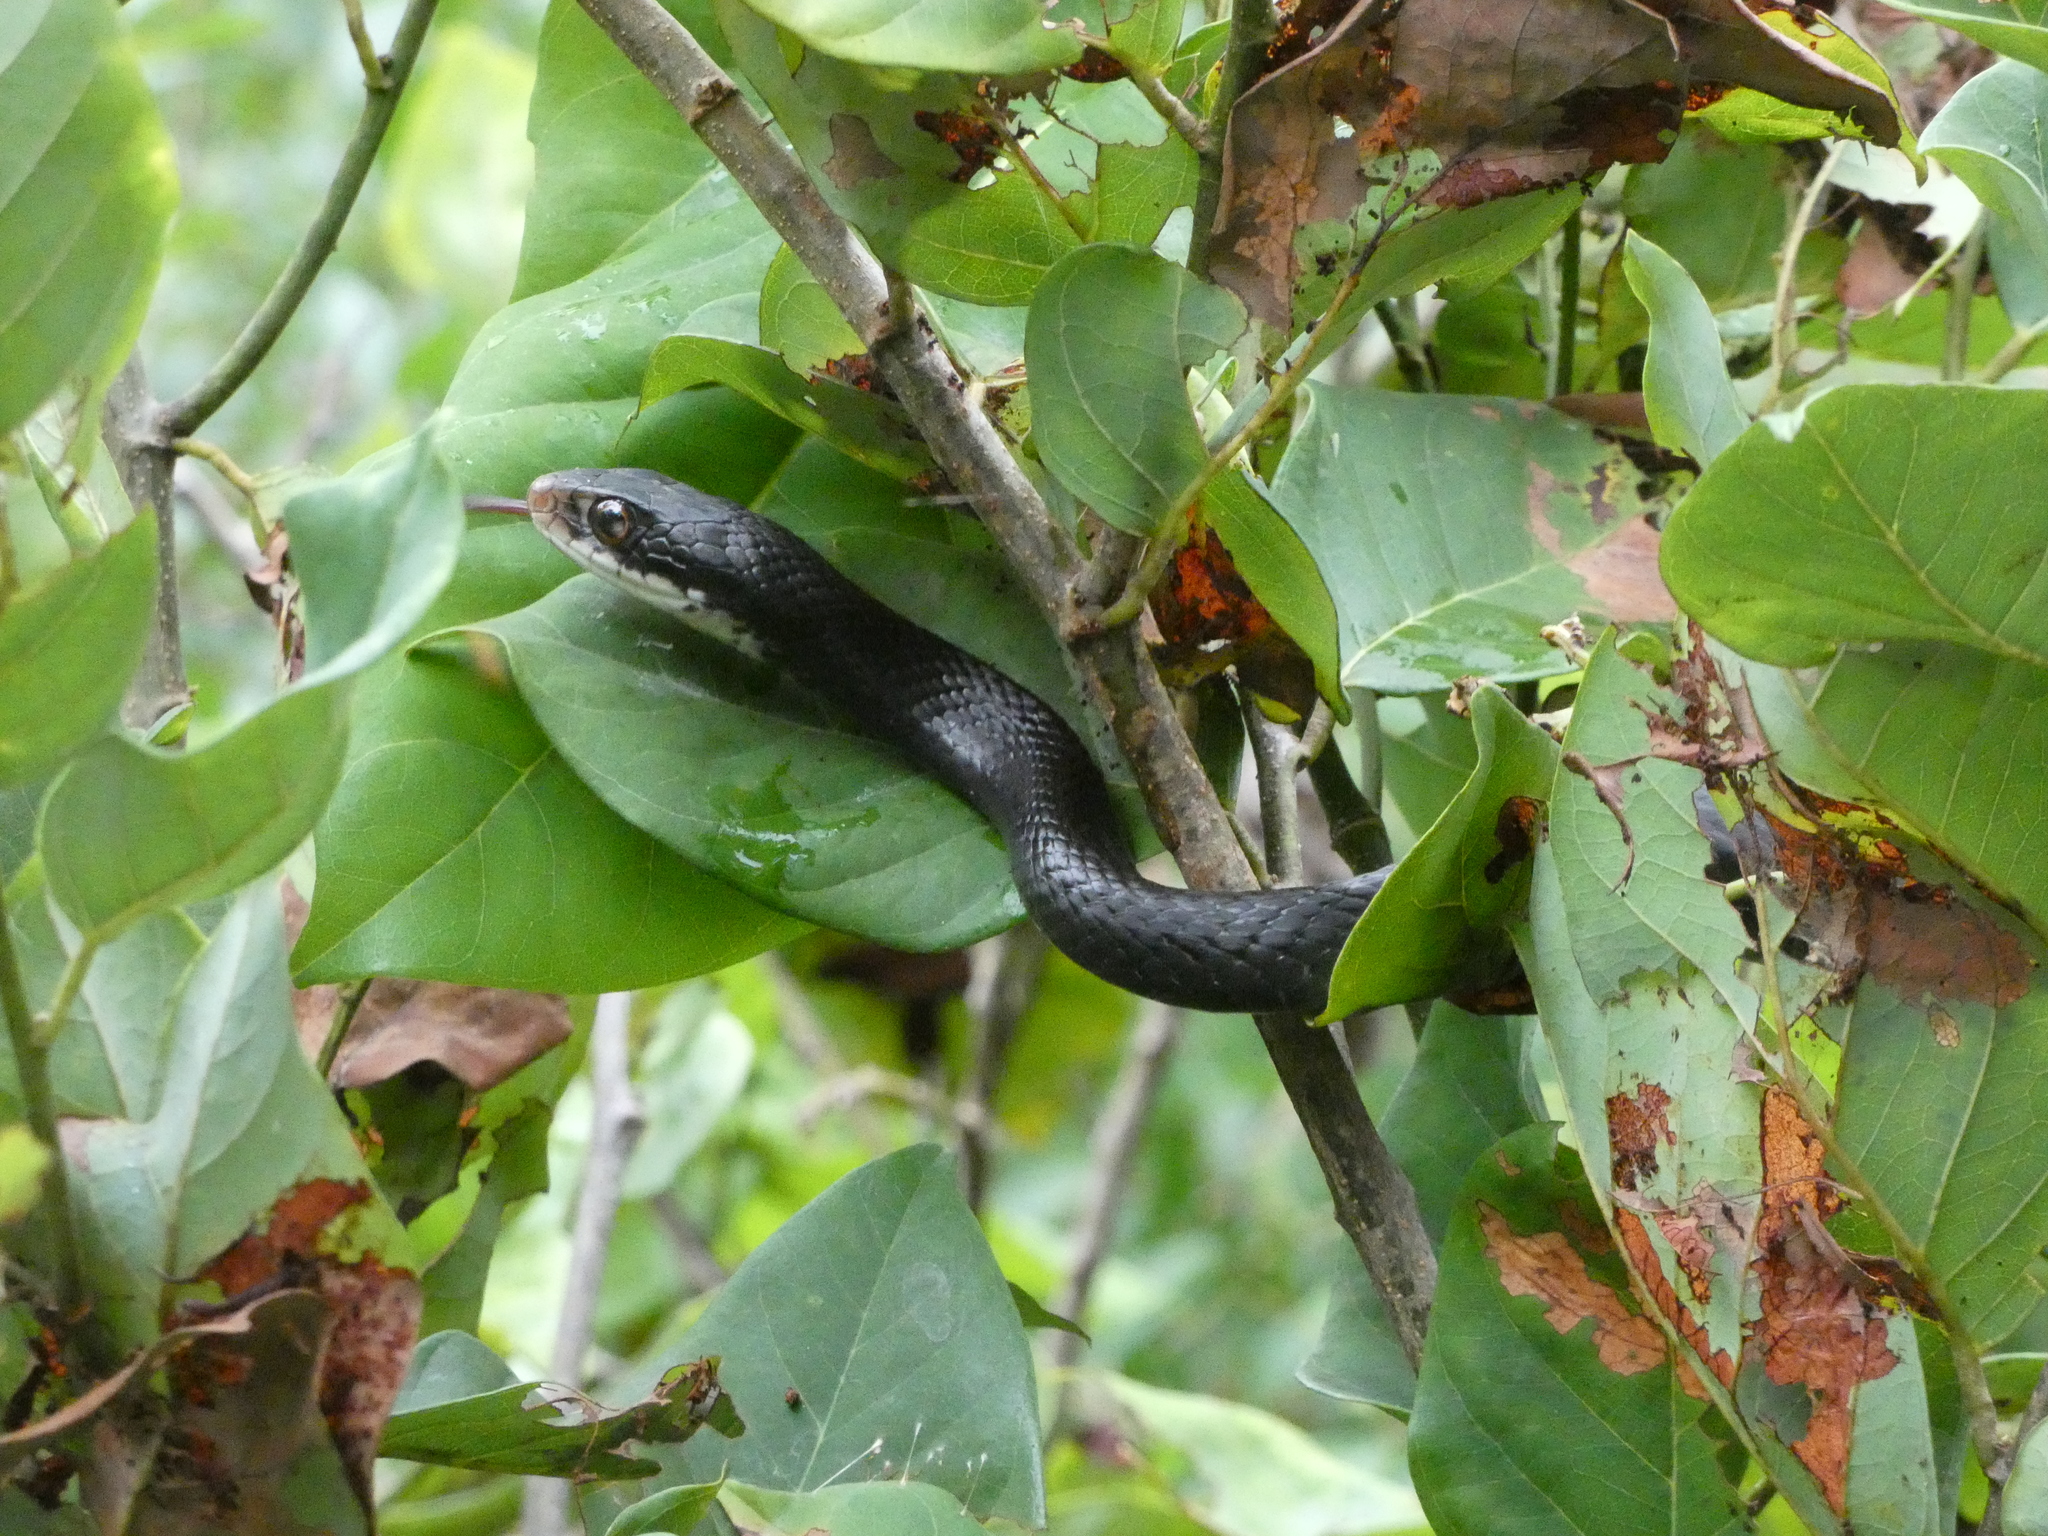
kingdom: Animalia
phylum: Chordata
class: Squamata
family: Colubridae
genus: Coluber
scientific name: Coluber constrictor
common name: Eastern racer
